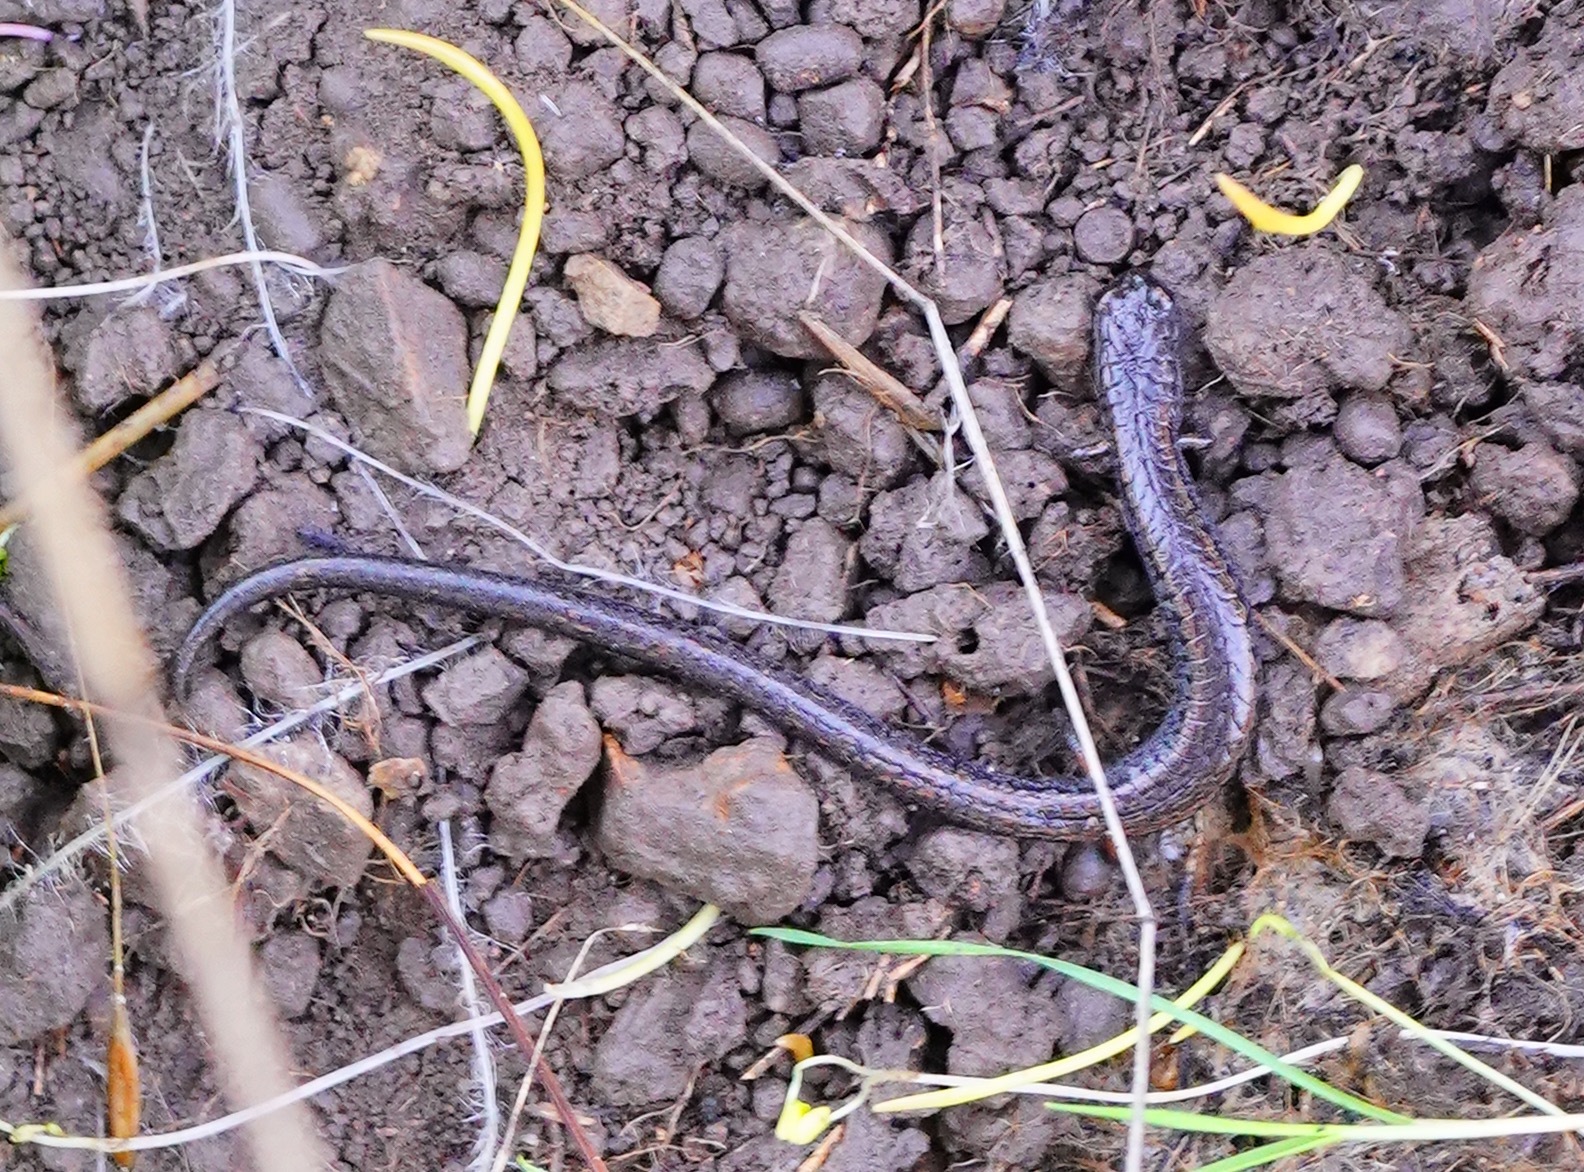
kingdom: Animalia
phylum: Chordata
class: Amphibia
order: Caudata
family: Plethodontidae
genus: Batrachoseps
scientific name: Batrachoseps attenuatus
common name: California slender salamander
